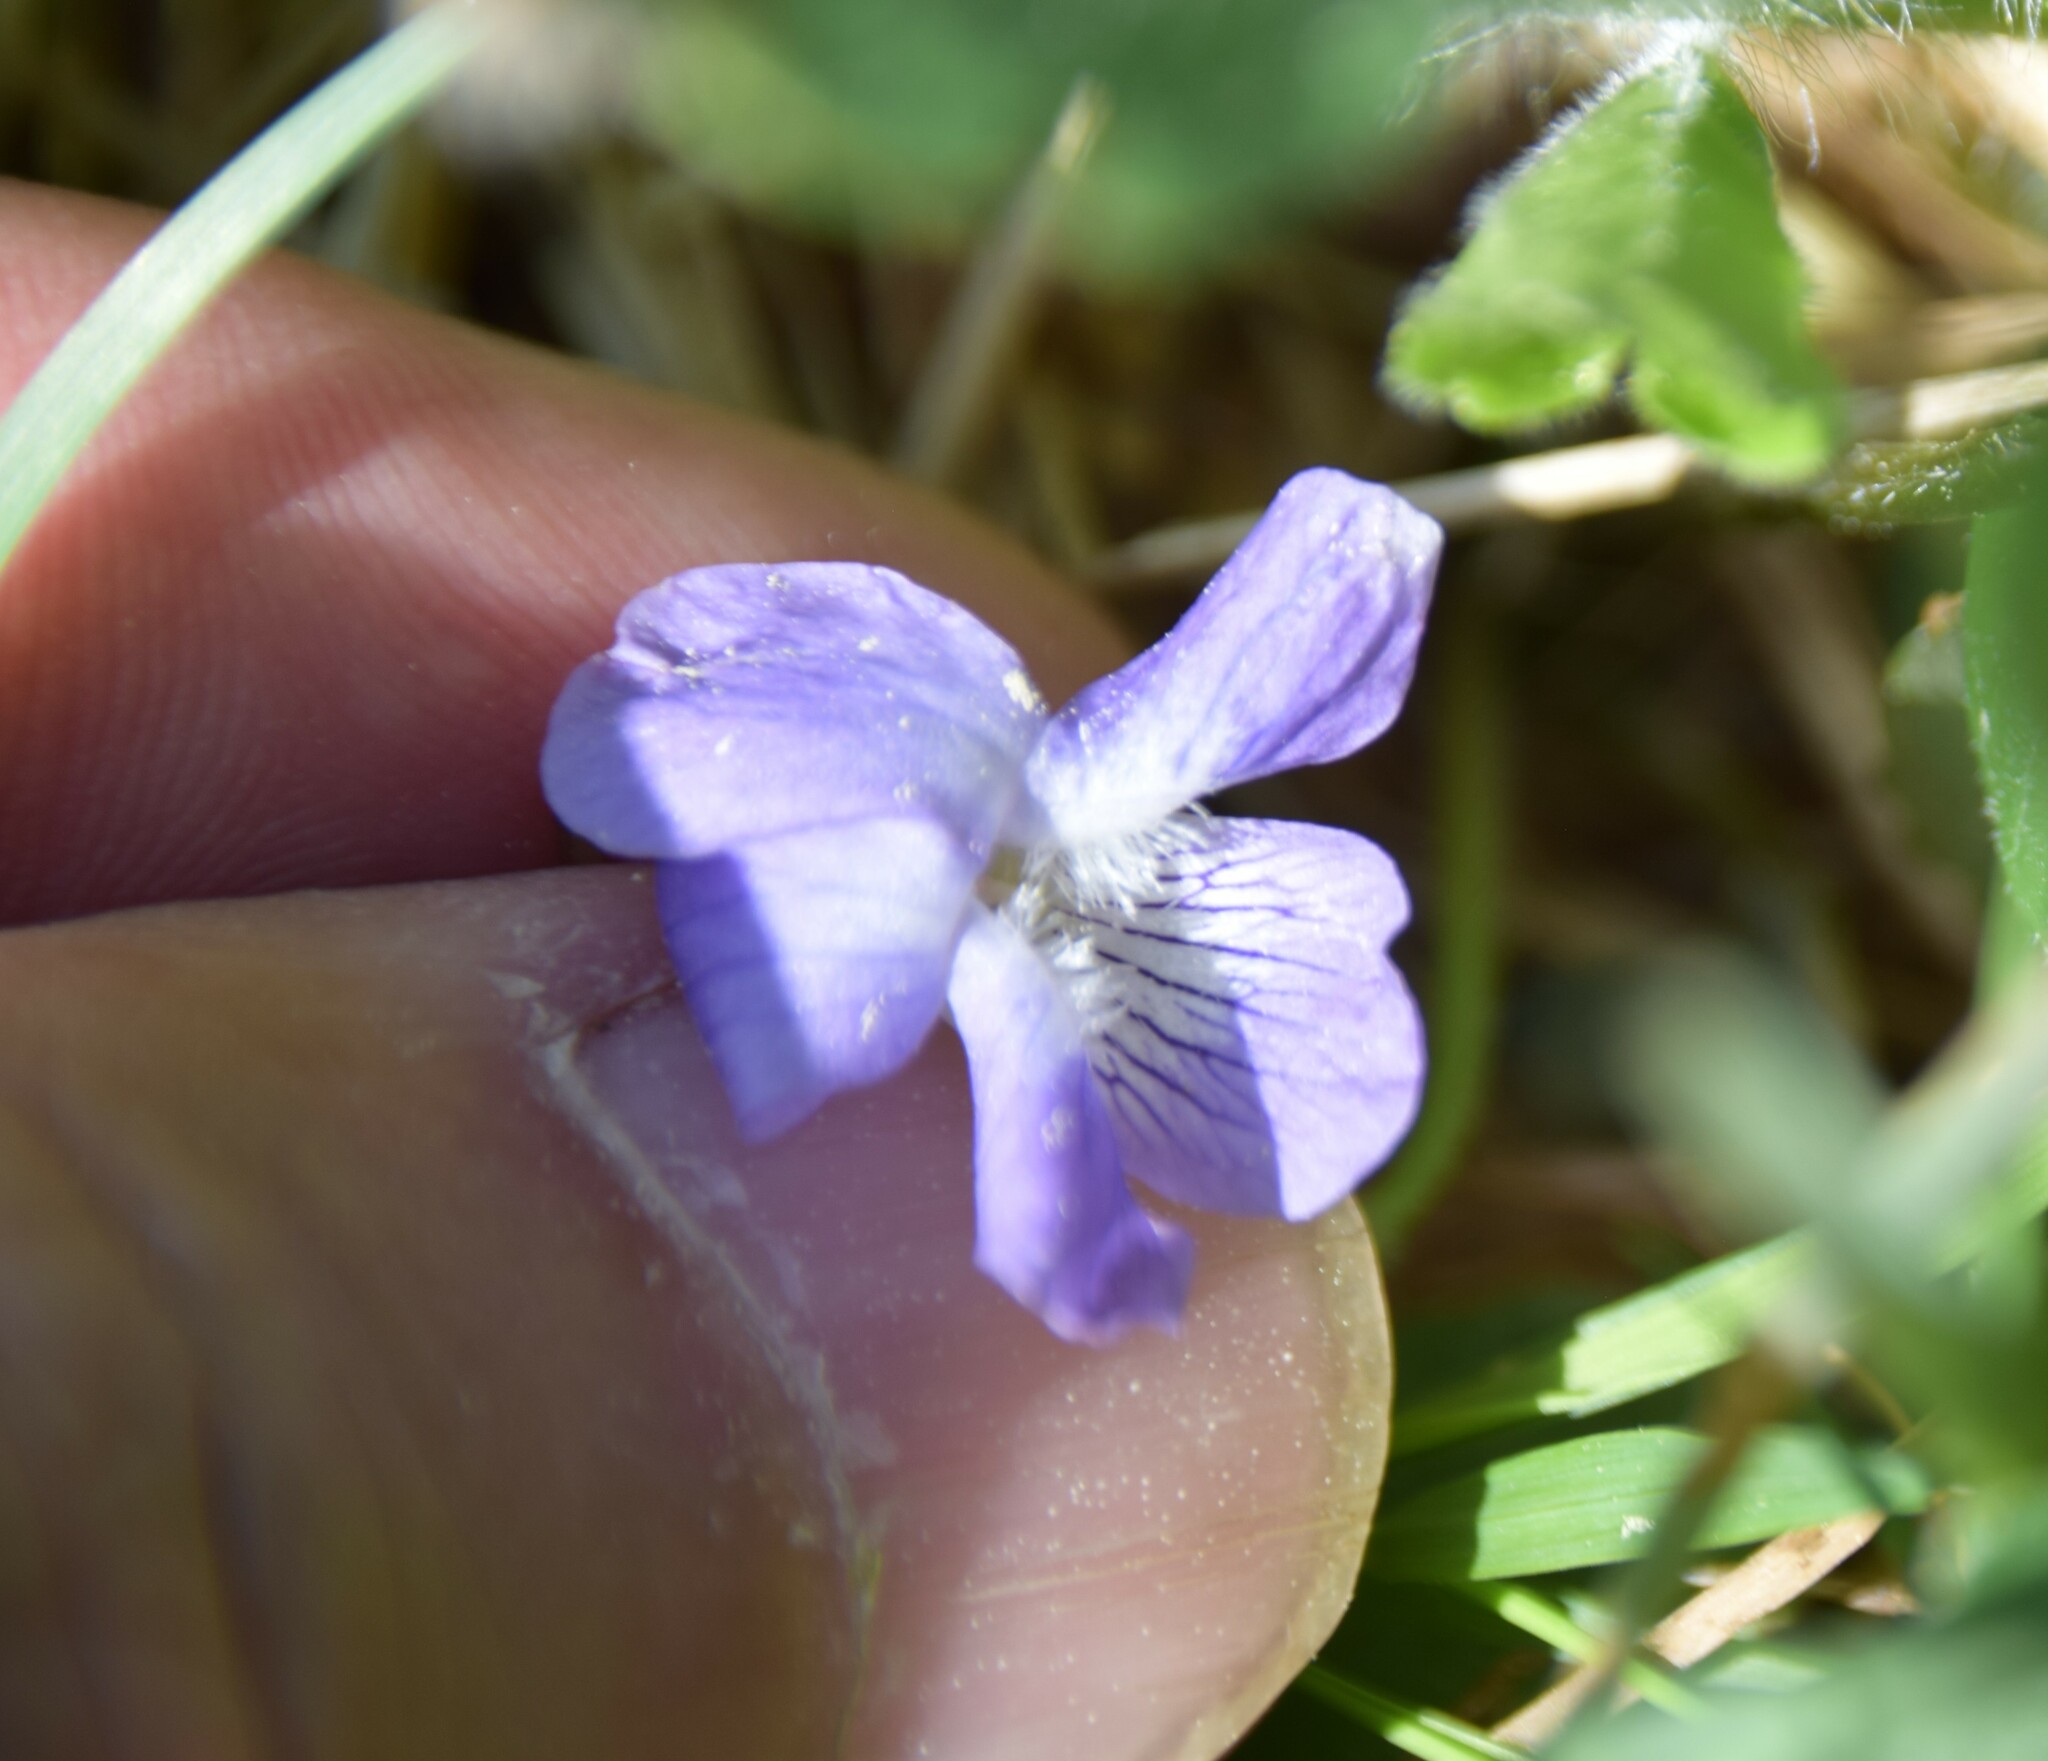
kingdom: Plantae
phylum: Tracheophyta
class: Magnoliopsida
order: Malpighiales
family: Violaceae
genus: Viola
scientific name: Viola adunca
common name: Sand violet
